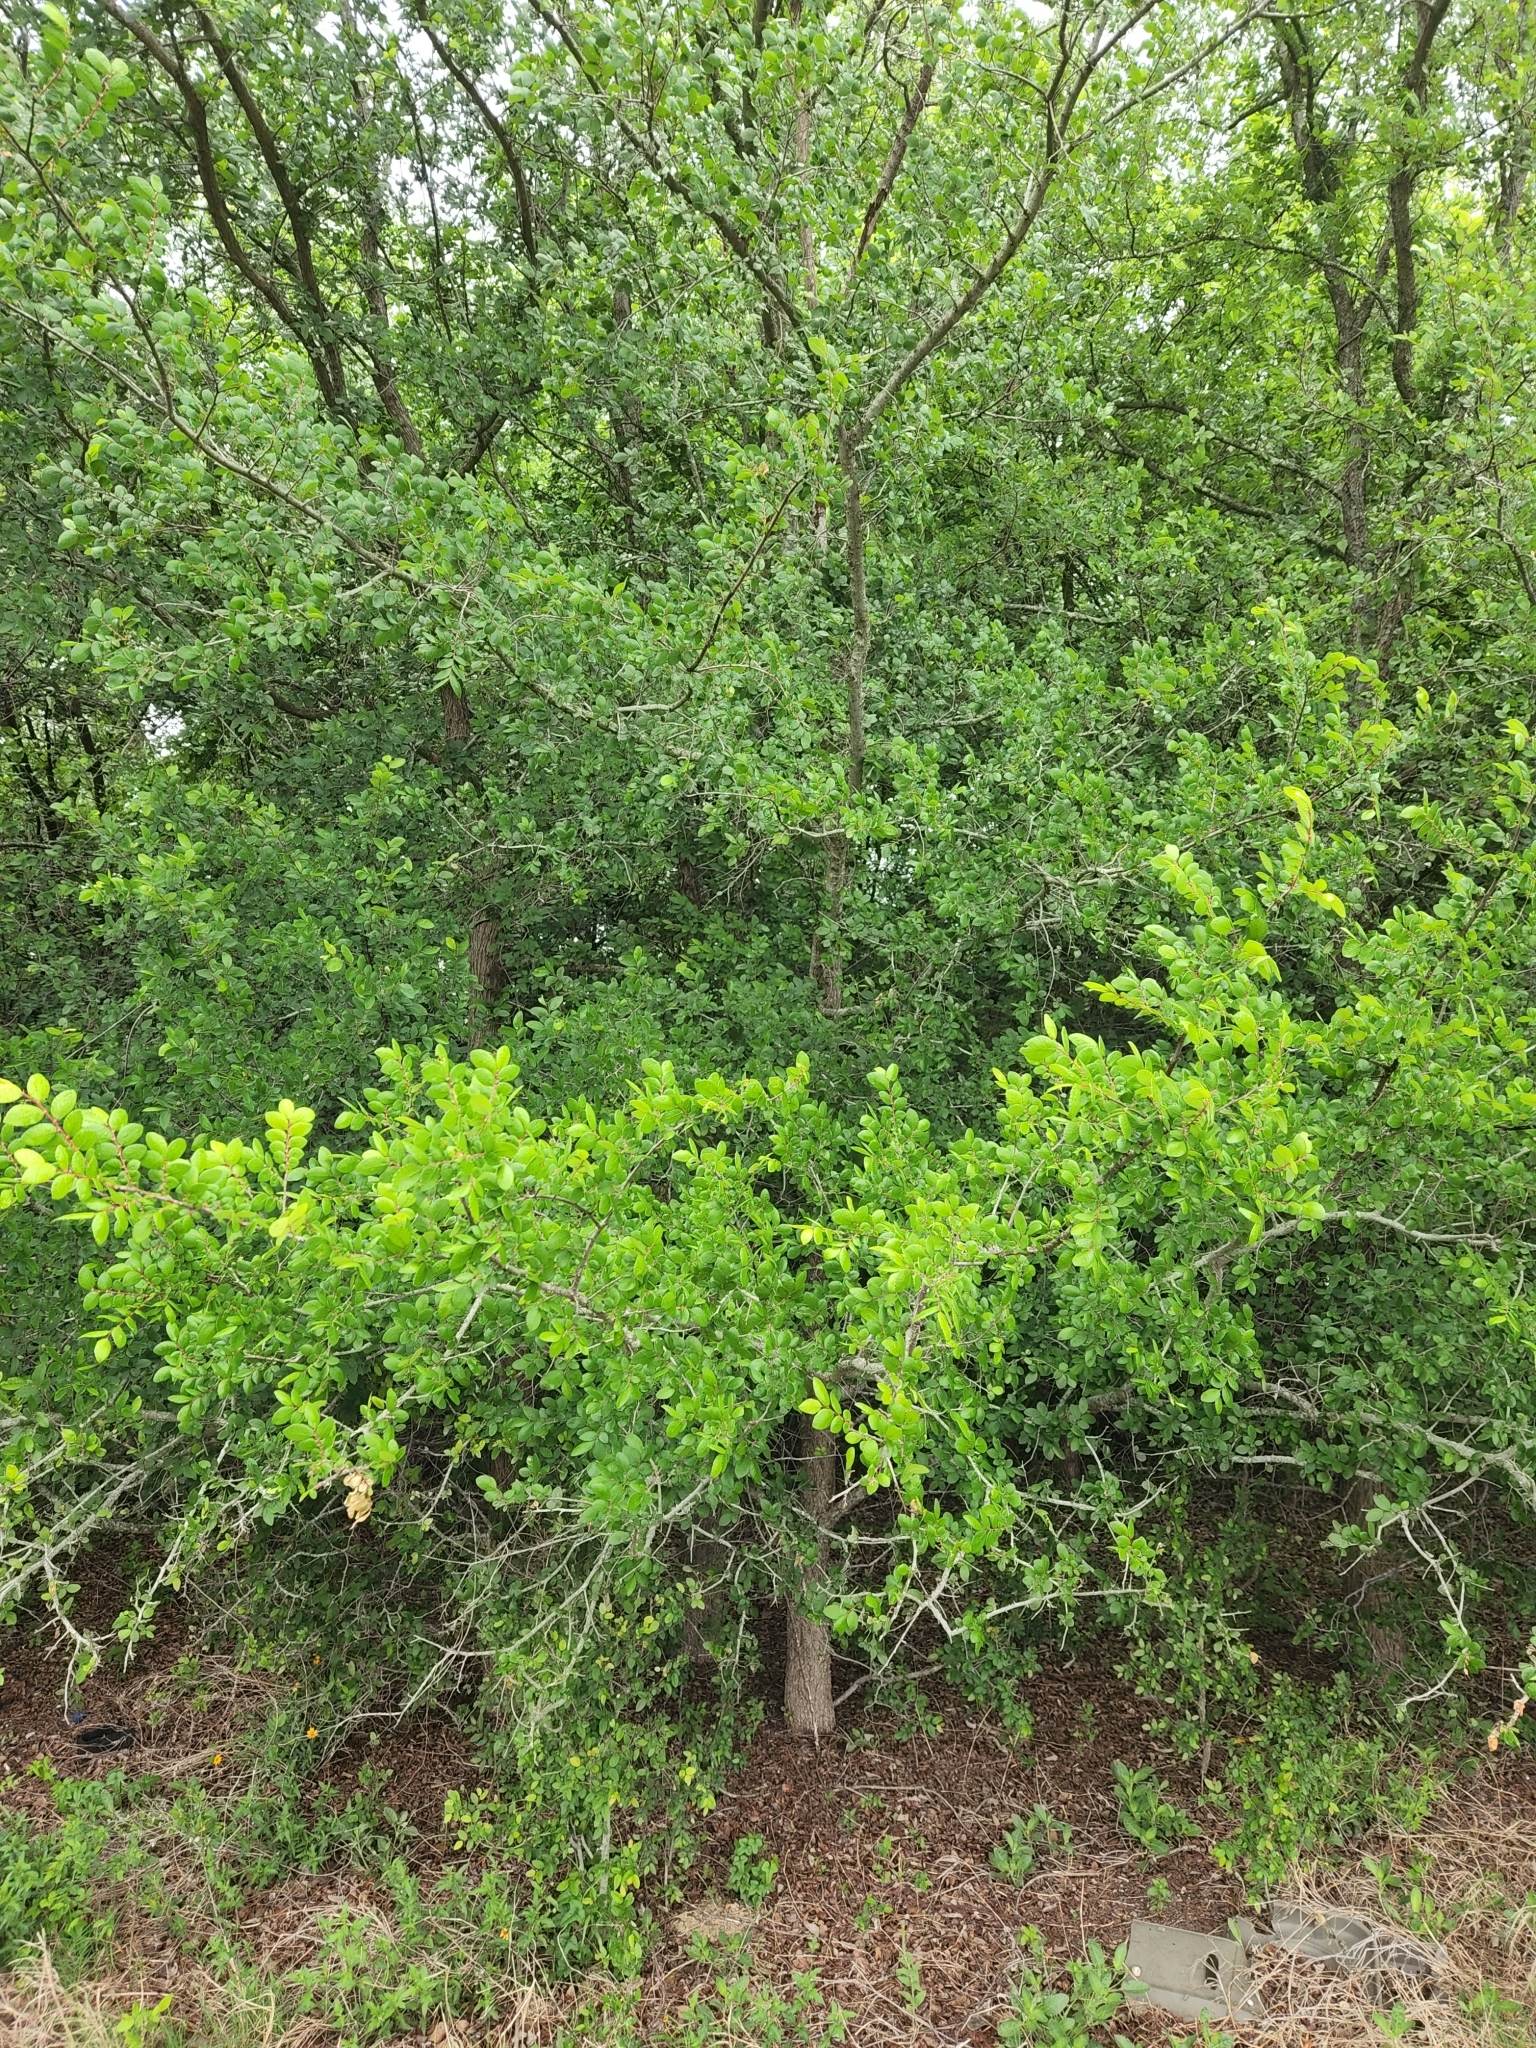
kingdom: Plantae
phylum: Tracheophyta
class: Magnoliopsida
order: Rosales
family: Ulmaceae
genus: Ulmus
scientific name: Ulmus crassifolia
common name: Basket elm
